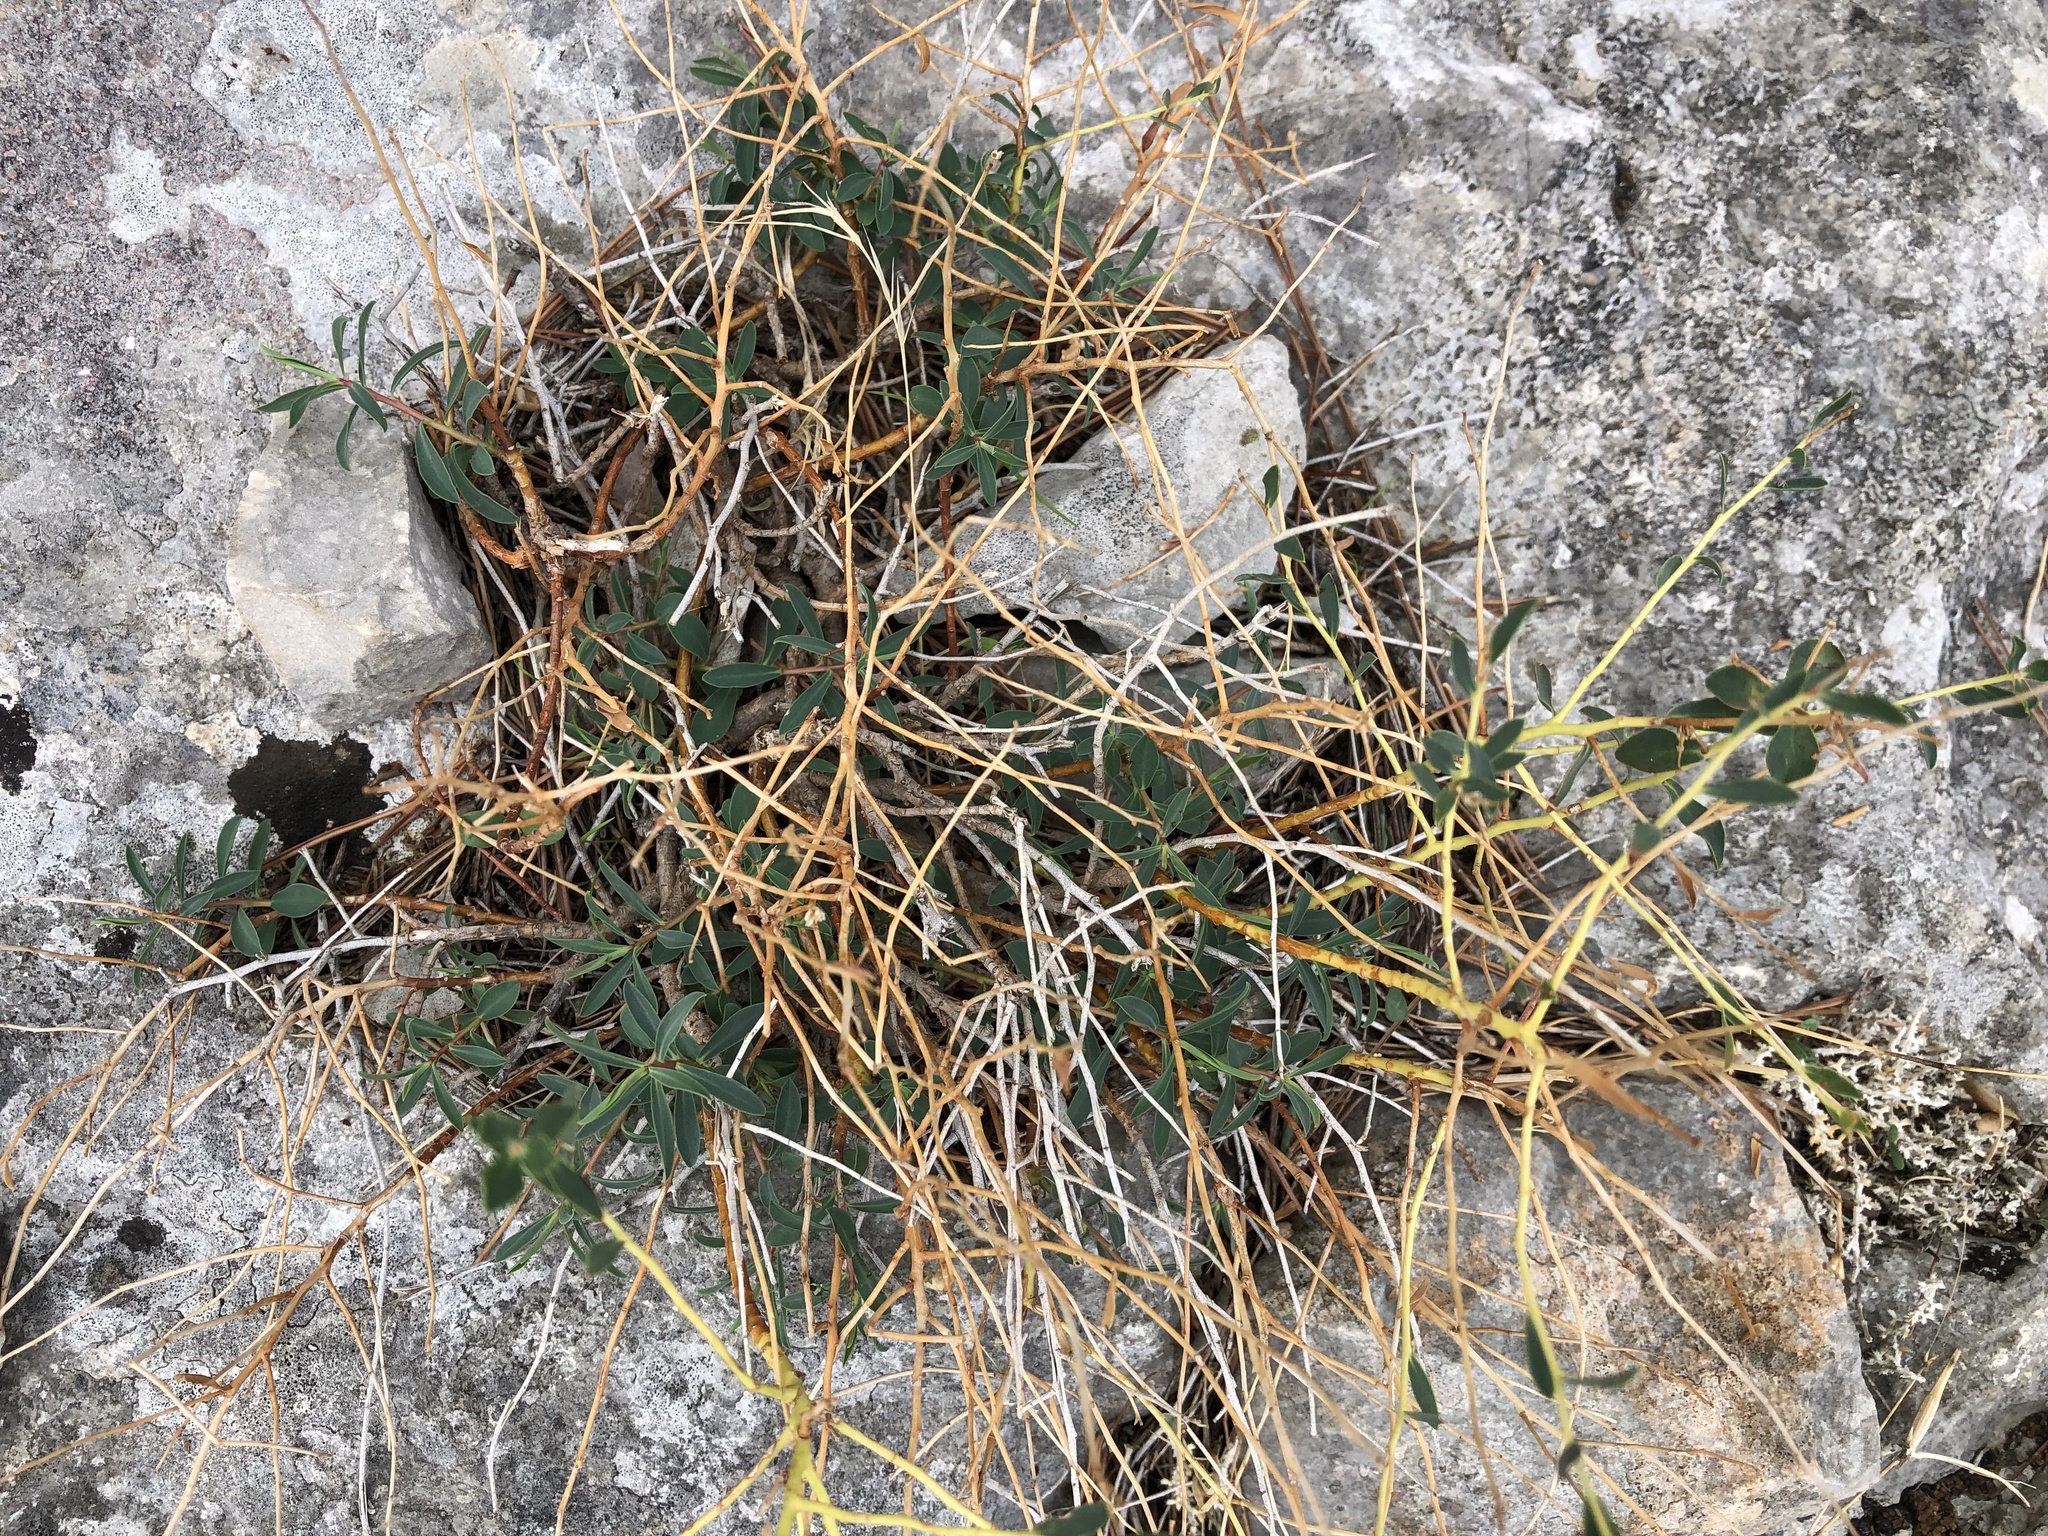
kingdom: Plantae
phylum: Tracheophyta
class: Magnoliopsida
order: Malpighiales
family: Euphorbiaceae
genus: Euphorbia
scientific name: Euphorbia spinosa
